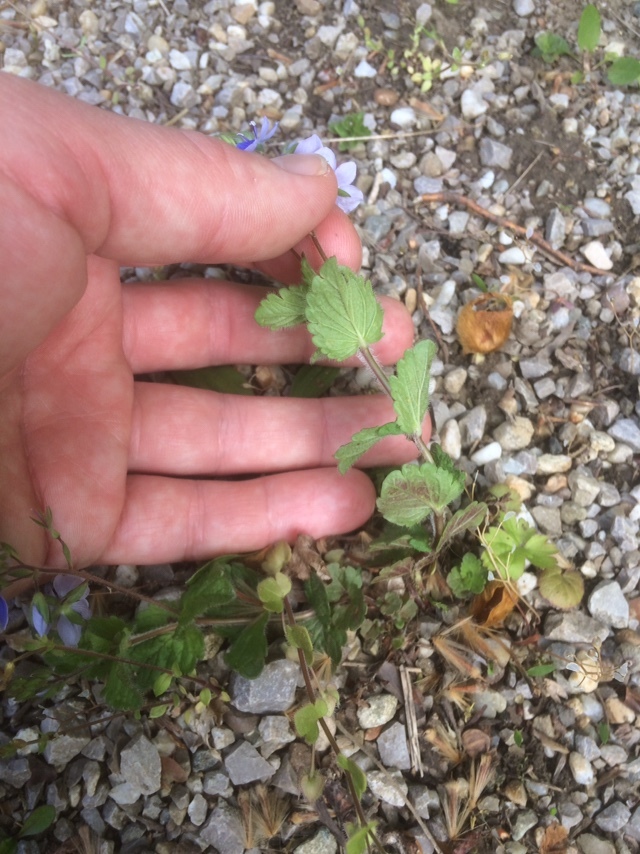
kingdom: Plantae
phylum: Tracheophyta
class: Magnoliopsida
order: Lamiales
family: Plantaginaceae
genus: Veronica
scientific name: Veronica chamaedrys
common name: Germander speedwell
